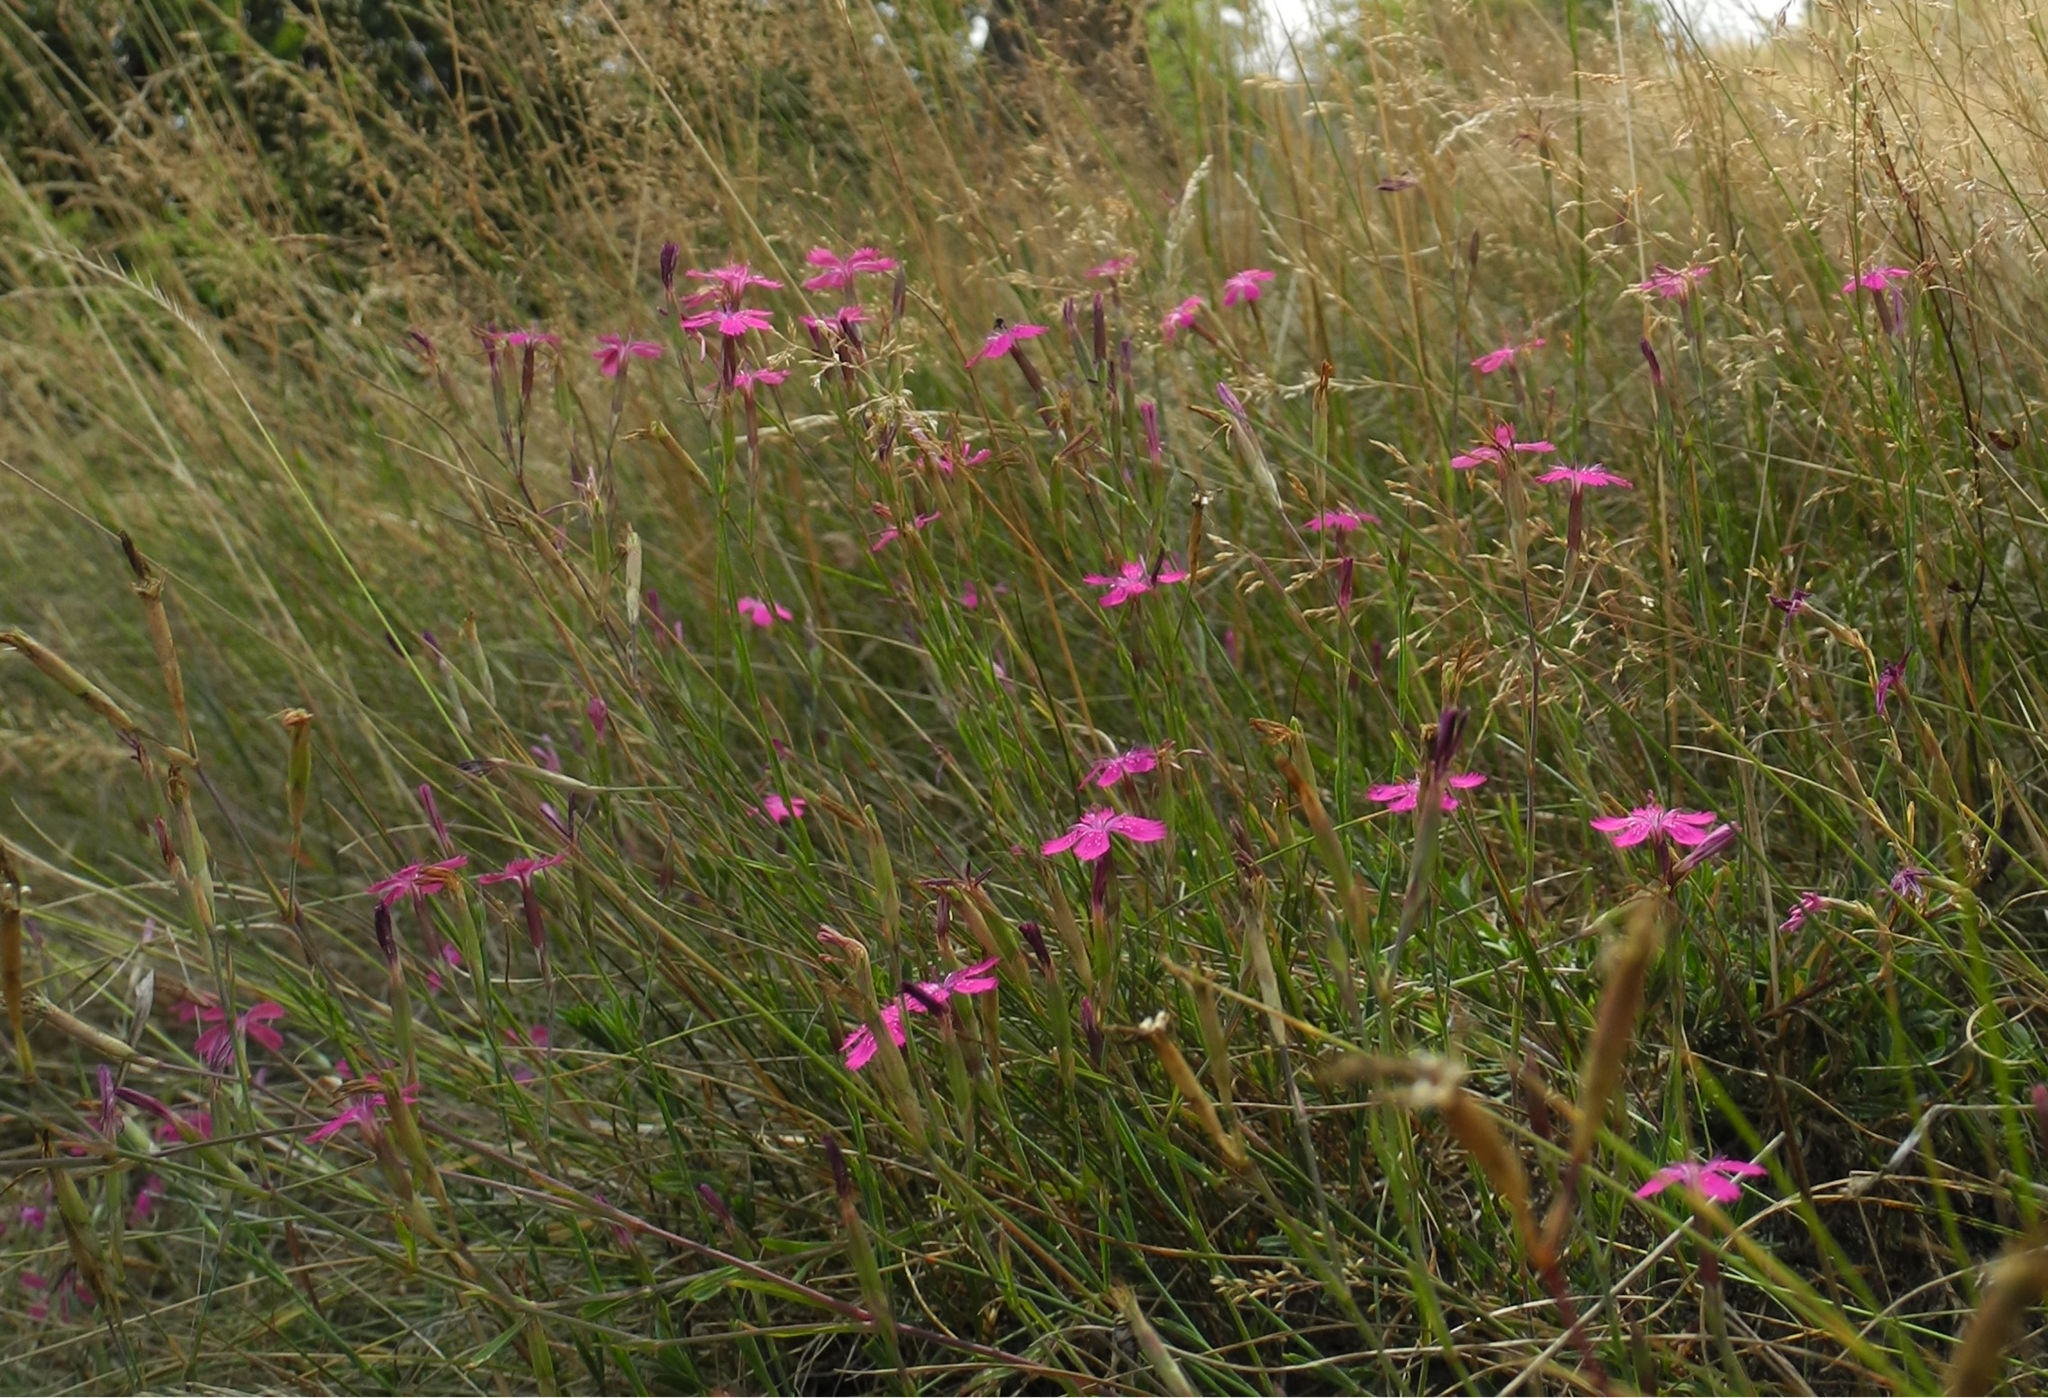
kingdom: Plantae
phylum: Tracheophyta
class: Magnoliopsida
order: Caryophyllales
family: Caryophyllaceae
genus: Dianthus
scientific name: Dianthus deltoides
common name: Maiden pink
